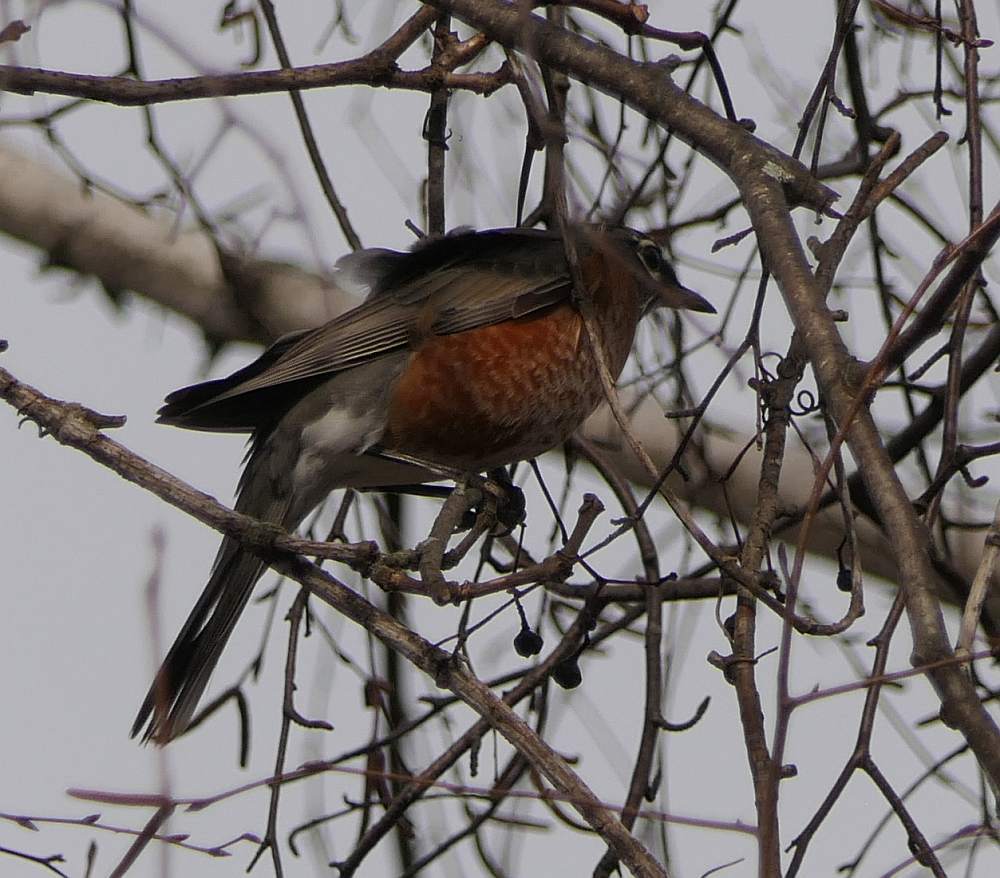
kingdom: Animalia
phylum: Chordata
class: Aves
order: Passeriformes
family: Turdidae
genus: Turdus
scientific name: Turdus migratorius
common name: American robin
